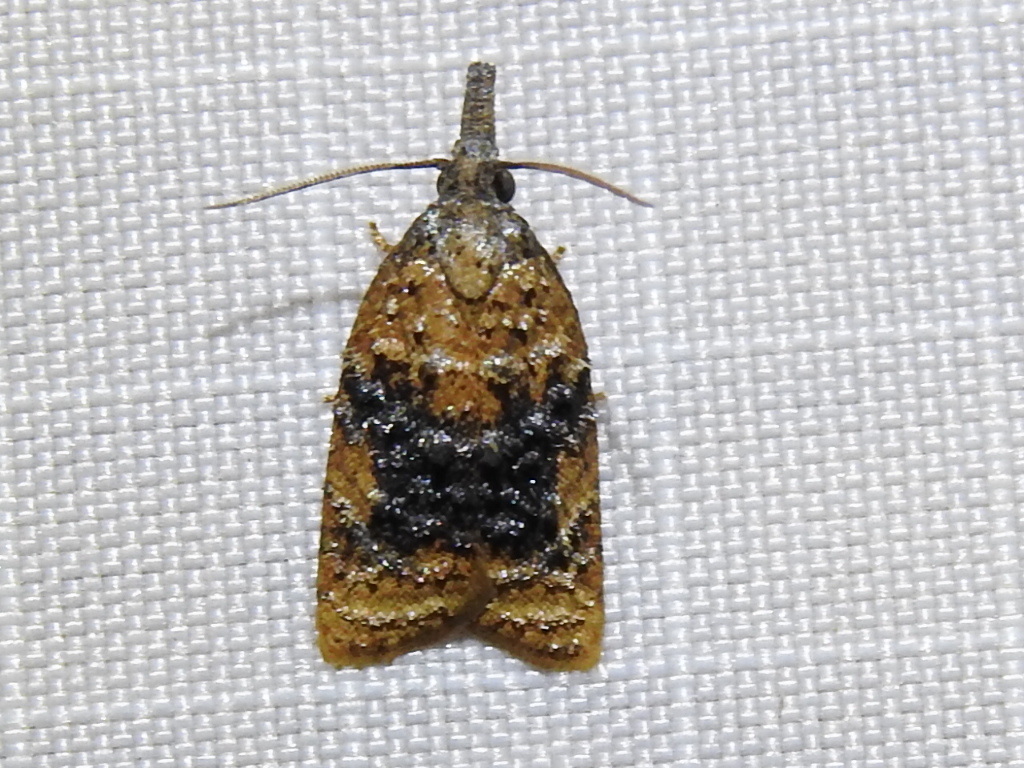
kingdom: Animalia
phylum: Arthropoda
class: Insecta
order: Lepidoptera
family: Tortricidae
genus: Platynota
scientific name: Platynota nigrocervina
